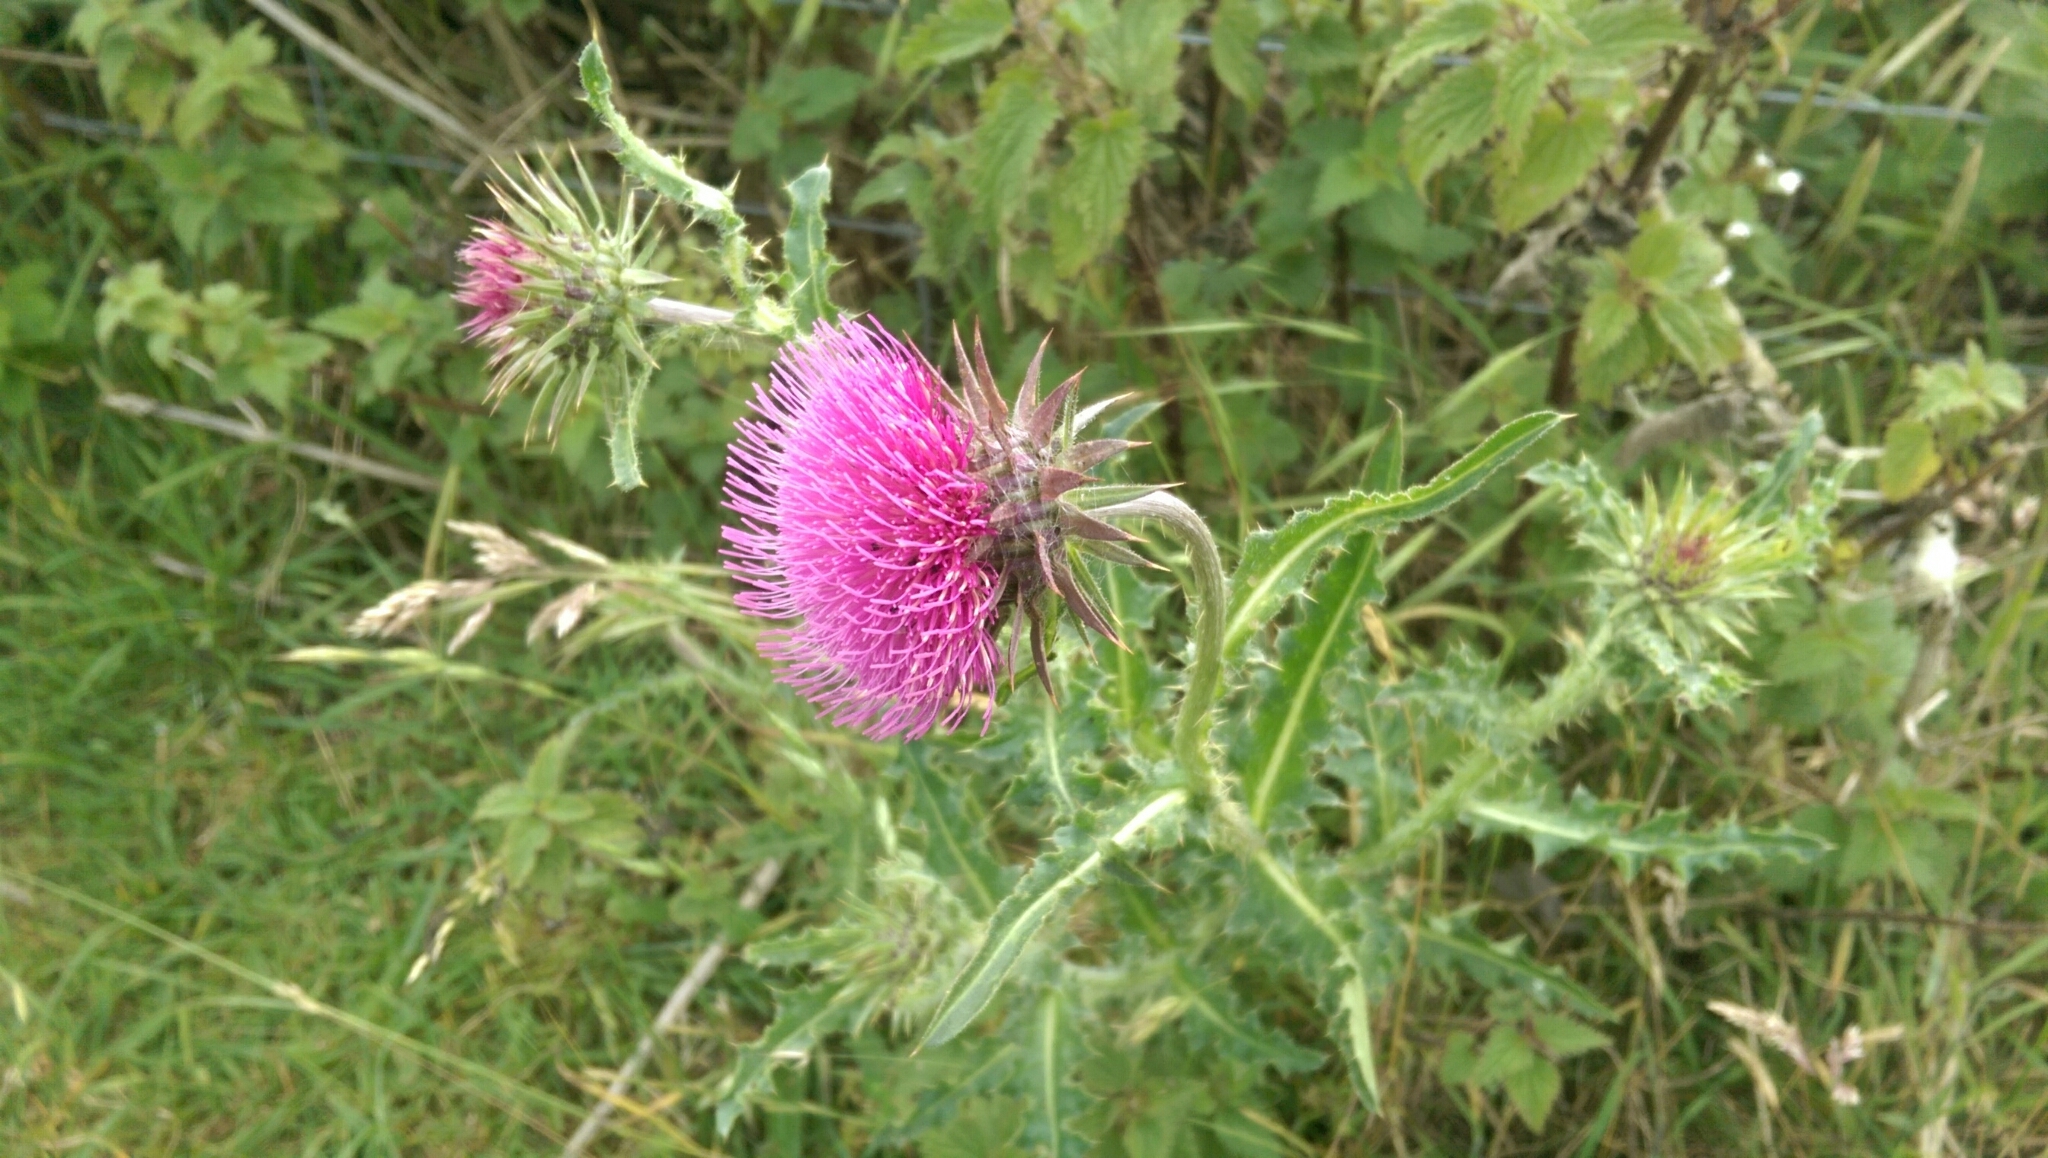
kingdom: Plantae
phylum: Tracheophyta
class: Magnoliopsida
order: Asterales
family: Asteraceae
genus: Carduus
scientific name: Carduus nutans
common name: Musk thistle
